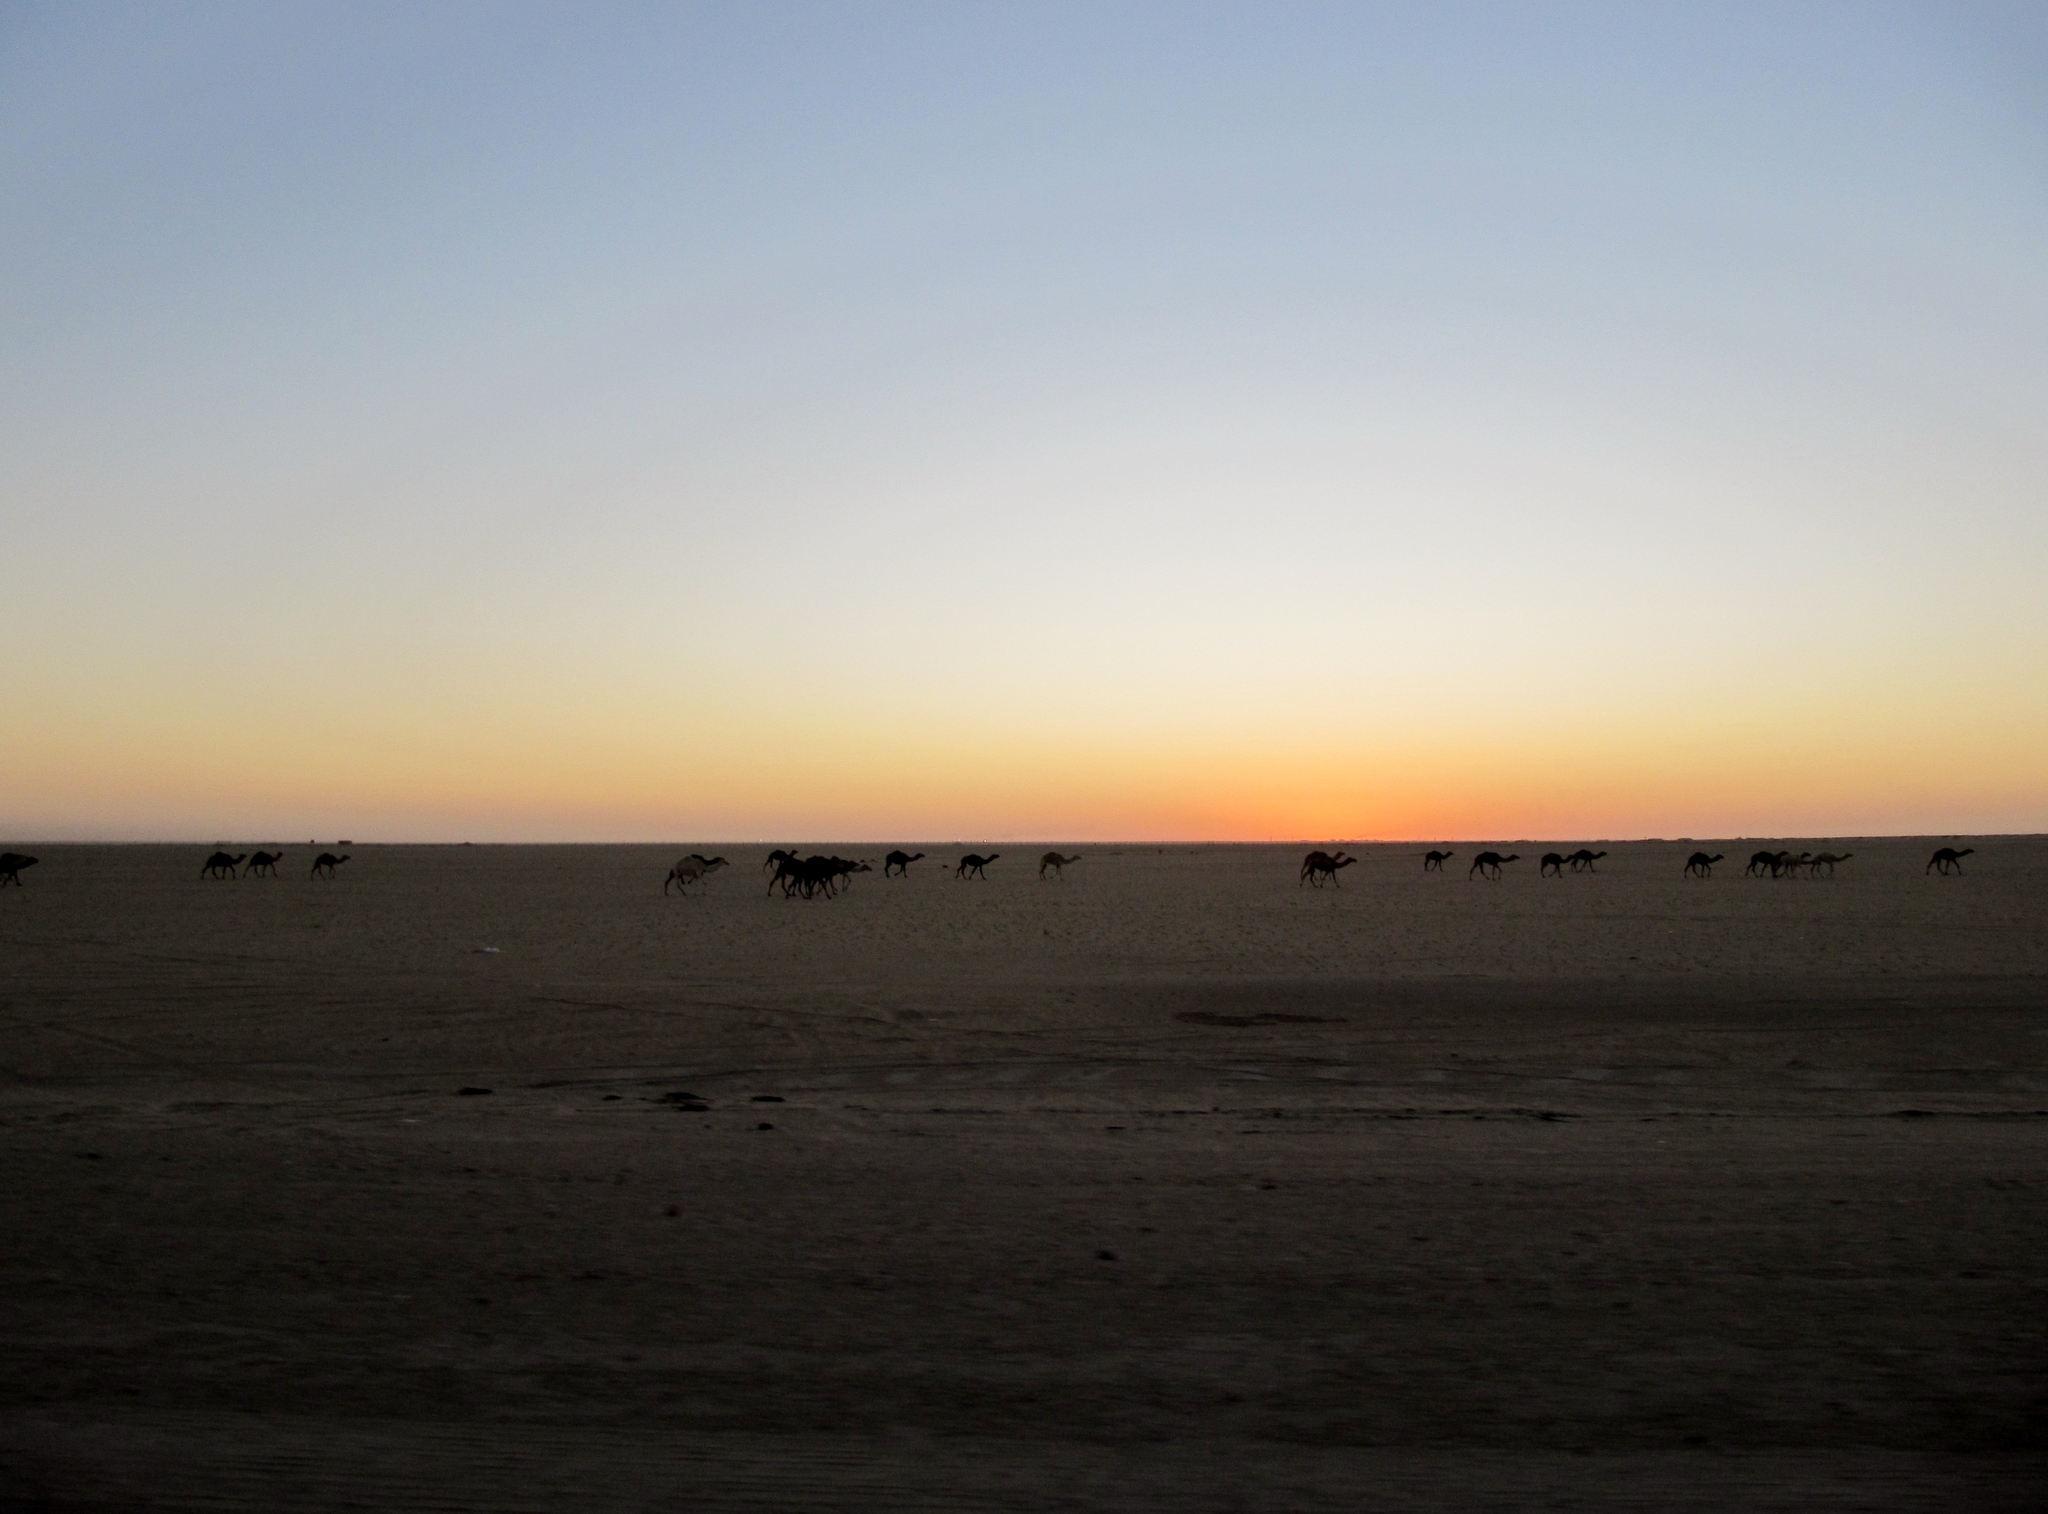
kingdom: Animalia
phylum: Chordata
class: Mammalia
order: Artiodactyla
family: Camelidae
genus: Camelus
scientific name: Camelus dromedarius
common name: One-humped camel
